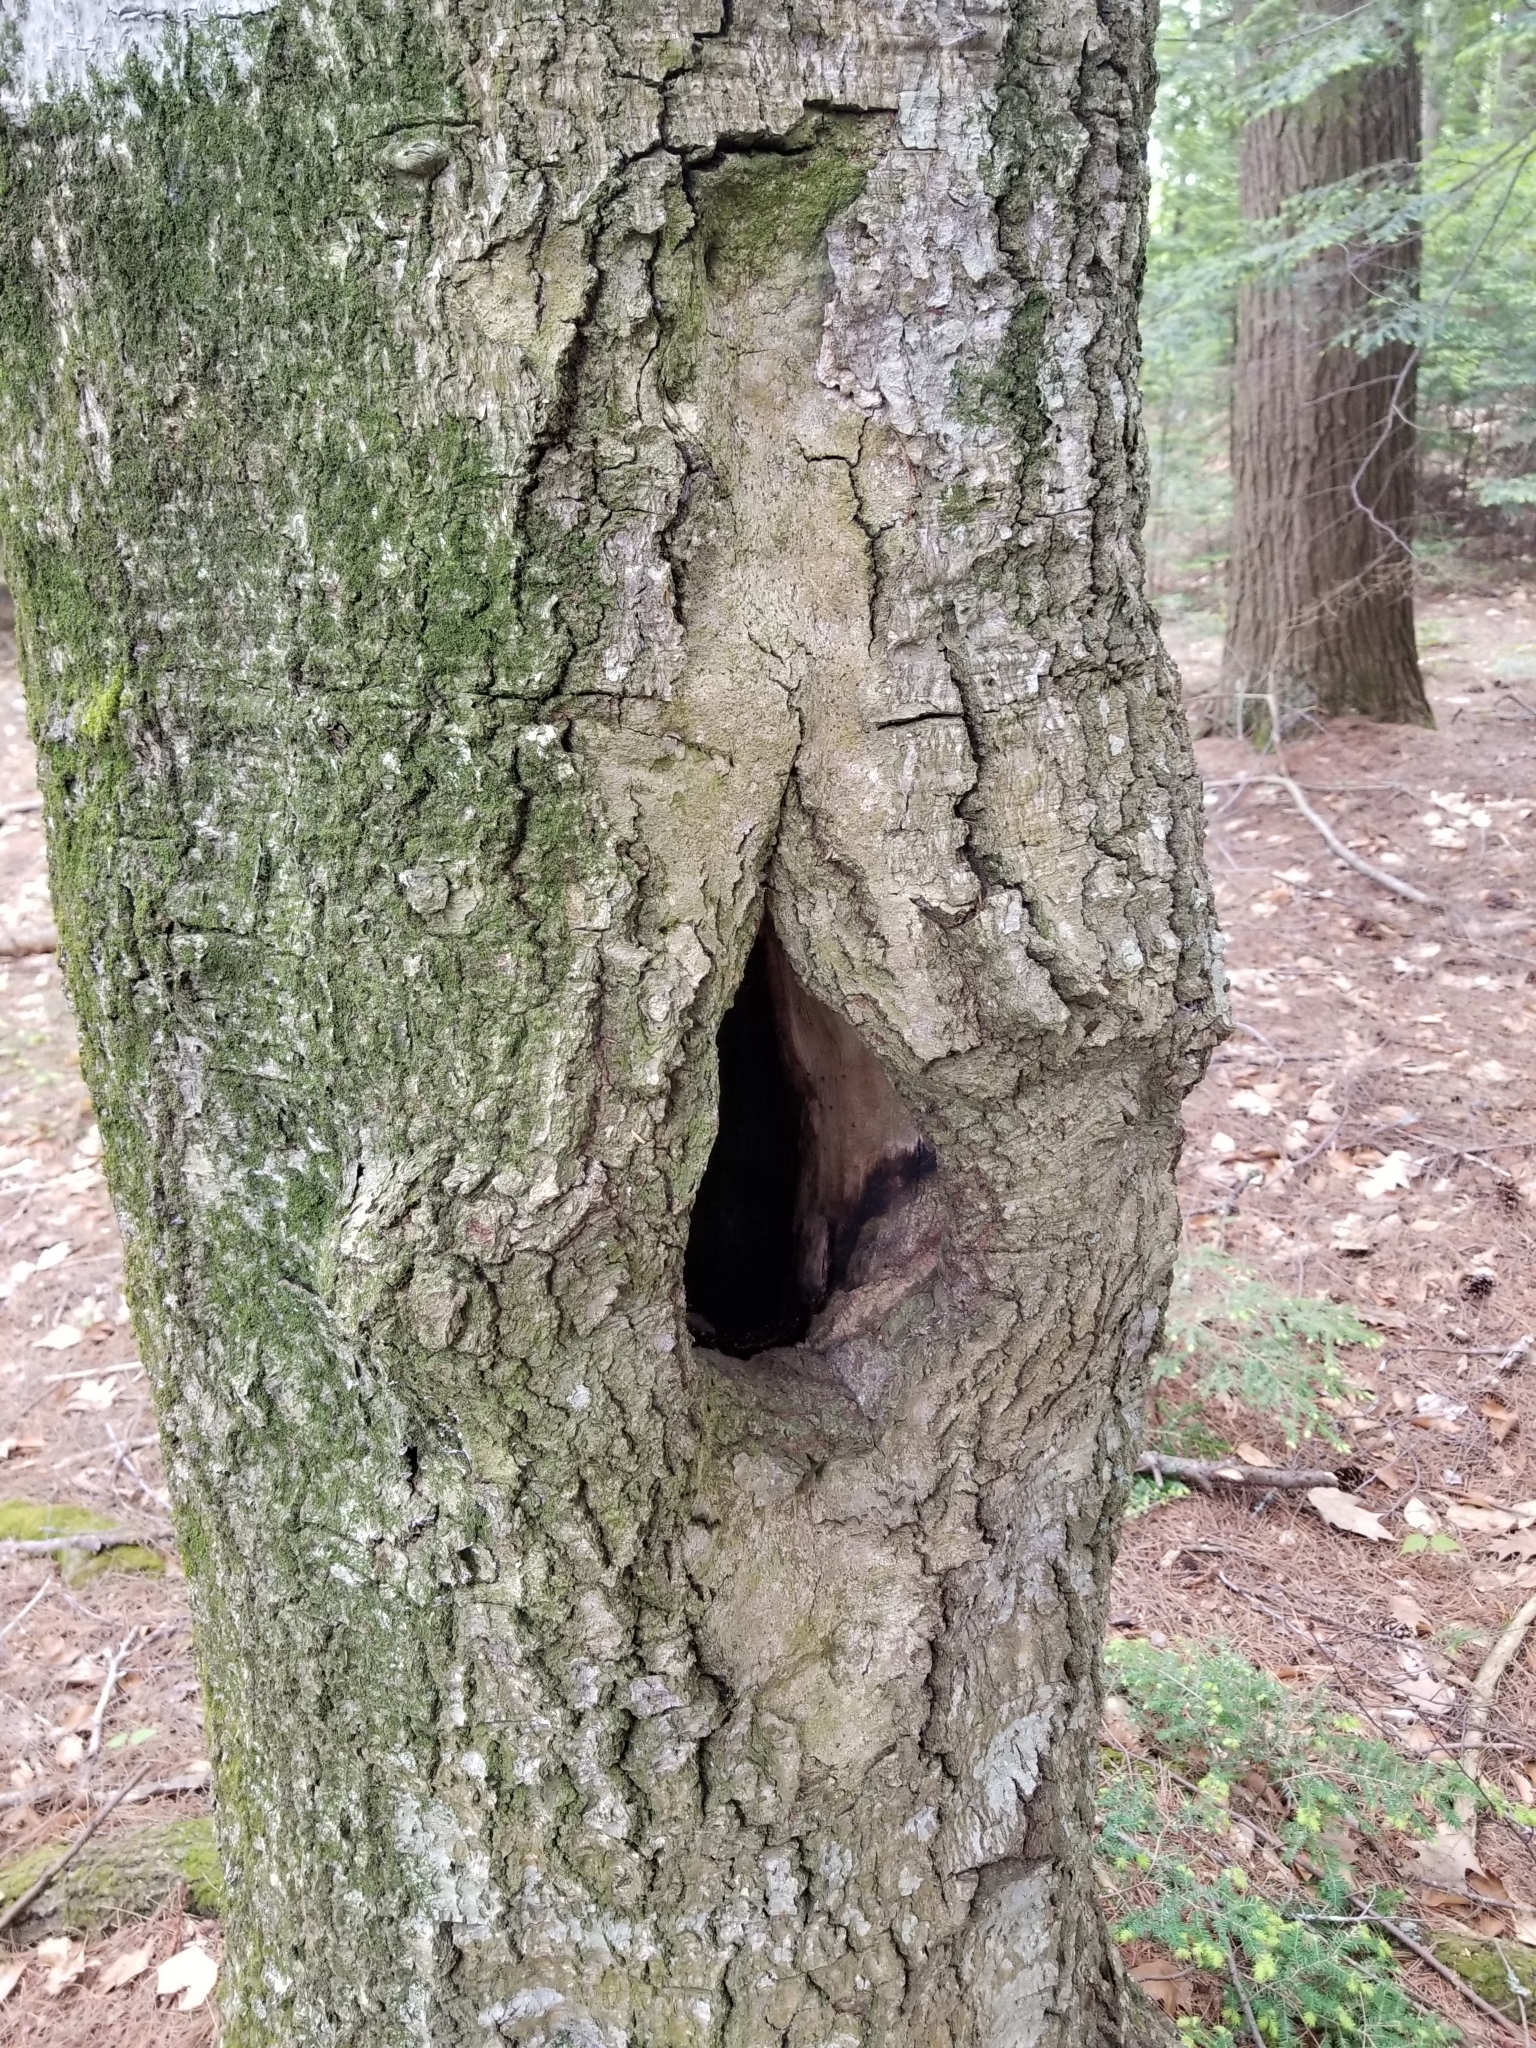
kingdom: Plantae
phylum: Tracheophyta
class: Magnoliopsida
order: Fagales
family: Fagaceae
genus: Fagus
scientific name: Fagus grandifolia
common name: American beech
